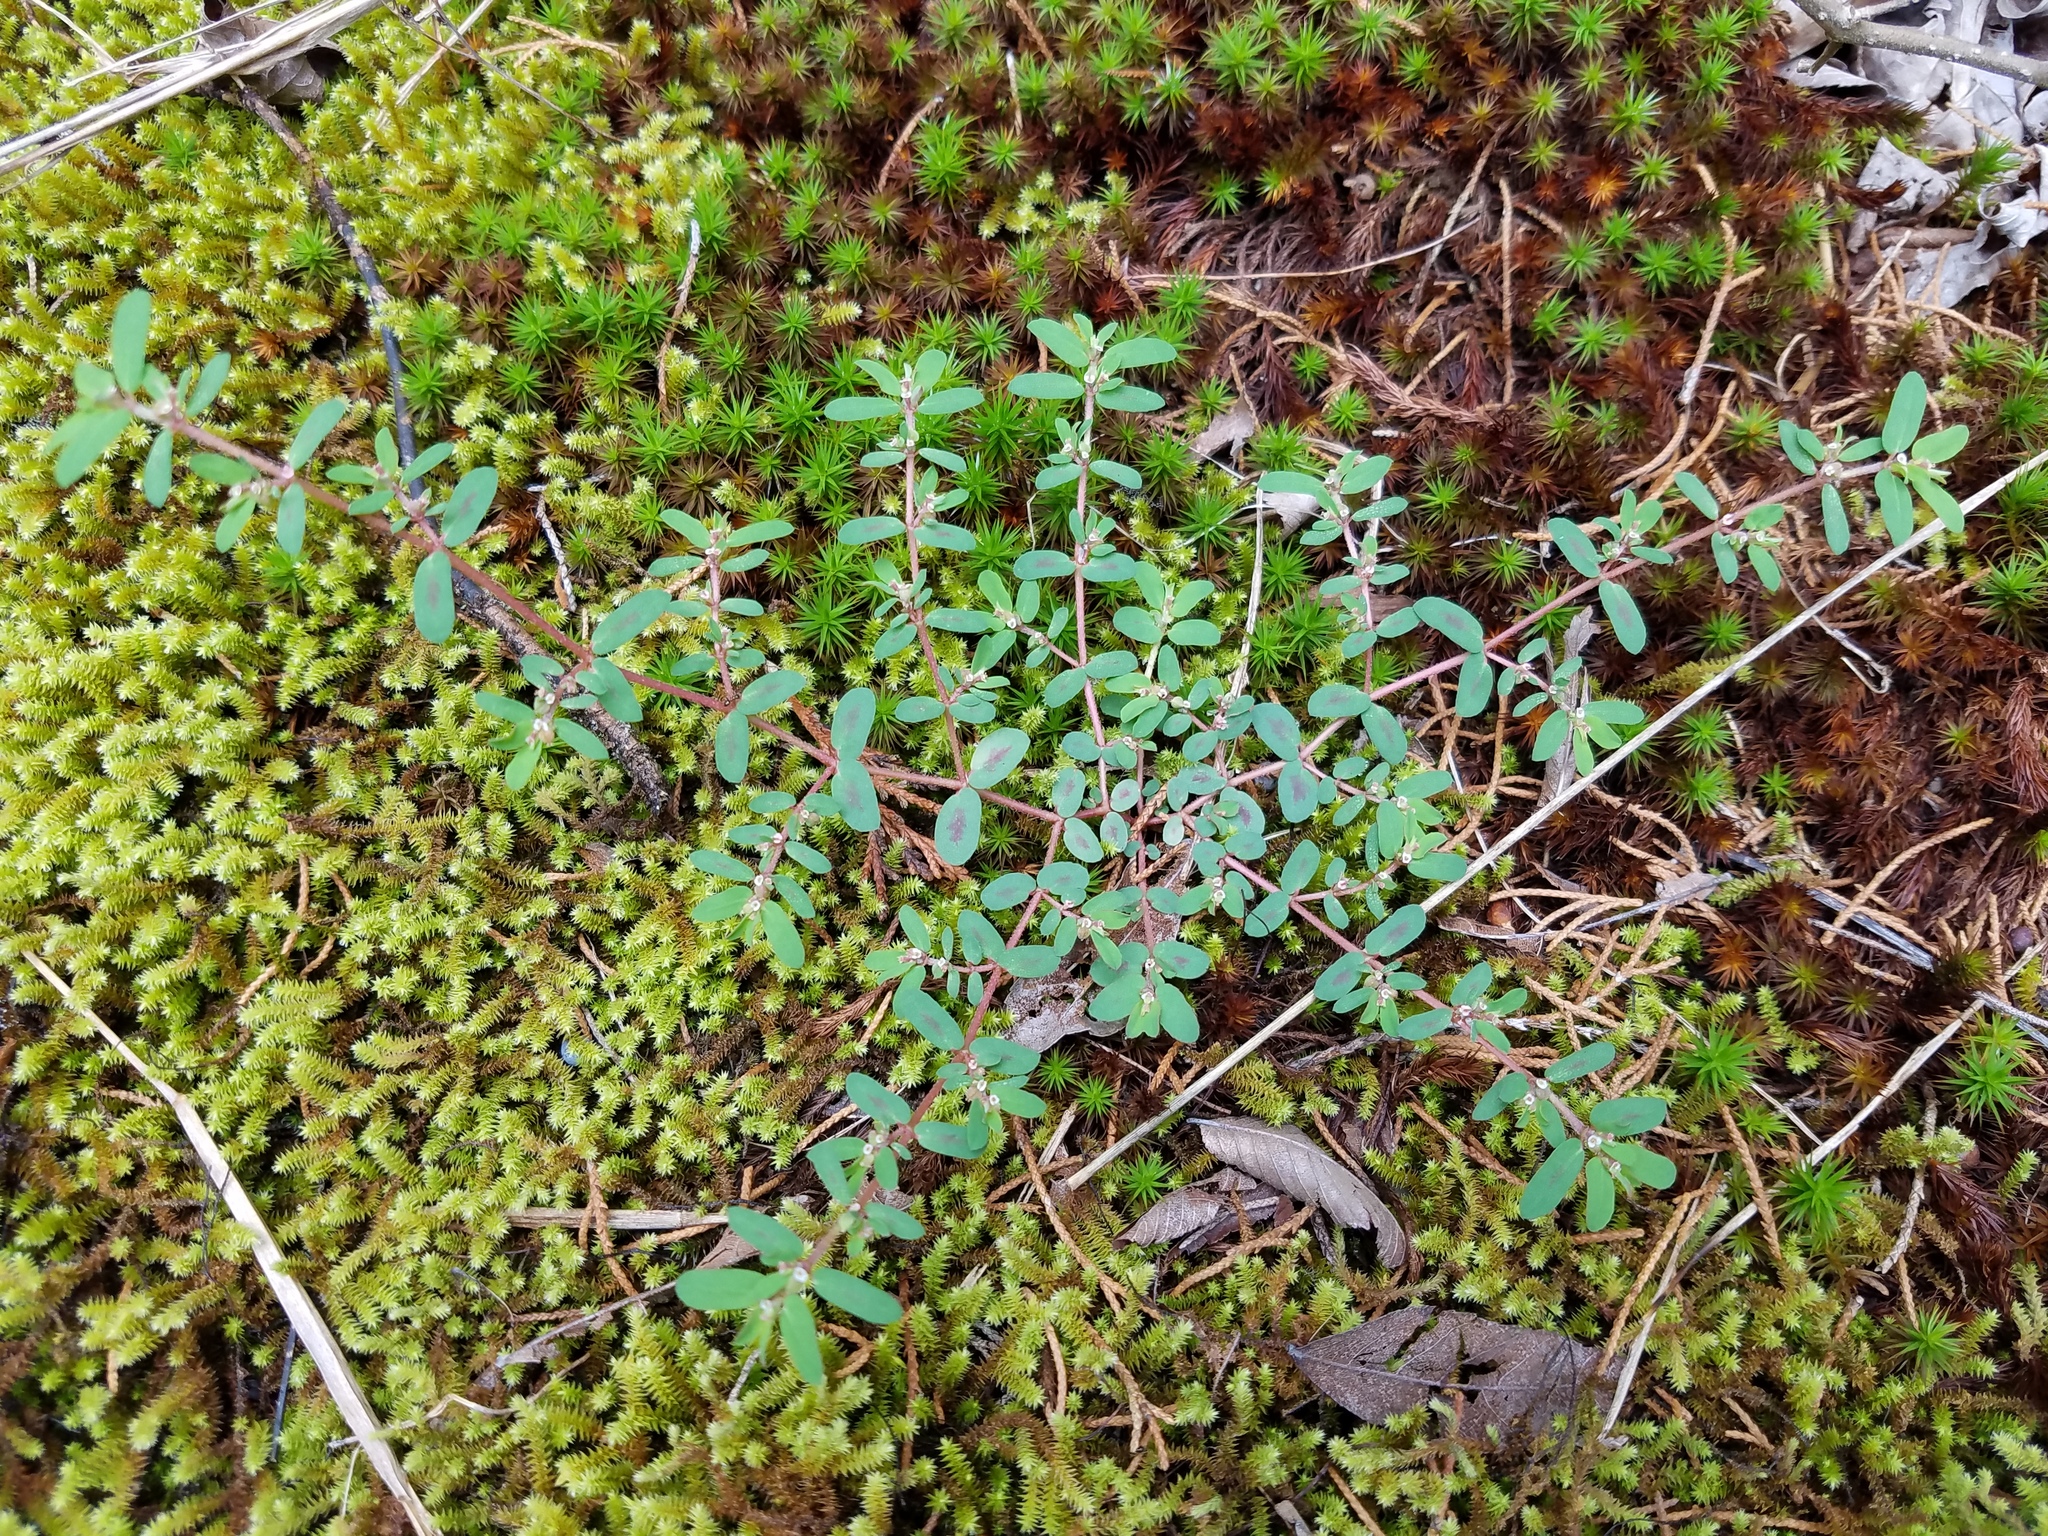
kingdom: Plantae
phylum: Tracheophyta
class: Magnoliopsida
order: Malpighiales
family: Euphorbiaceae
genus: Euphorbia
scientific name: Euphorbia maculata
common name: Spotted spurge
